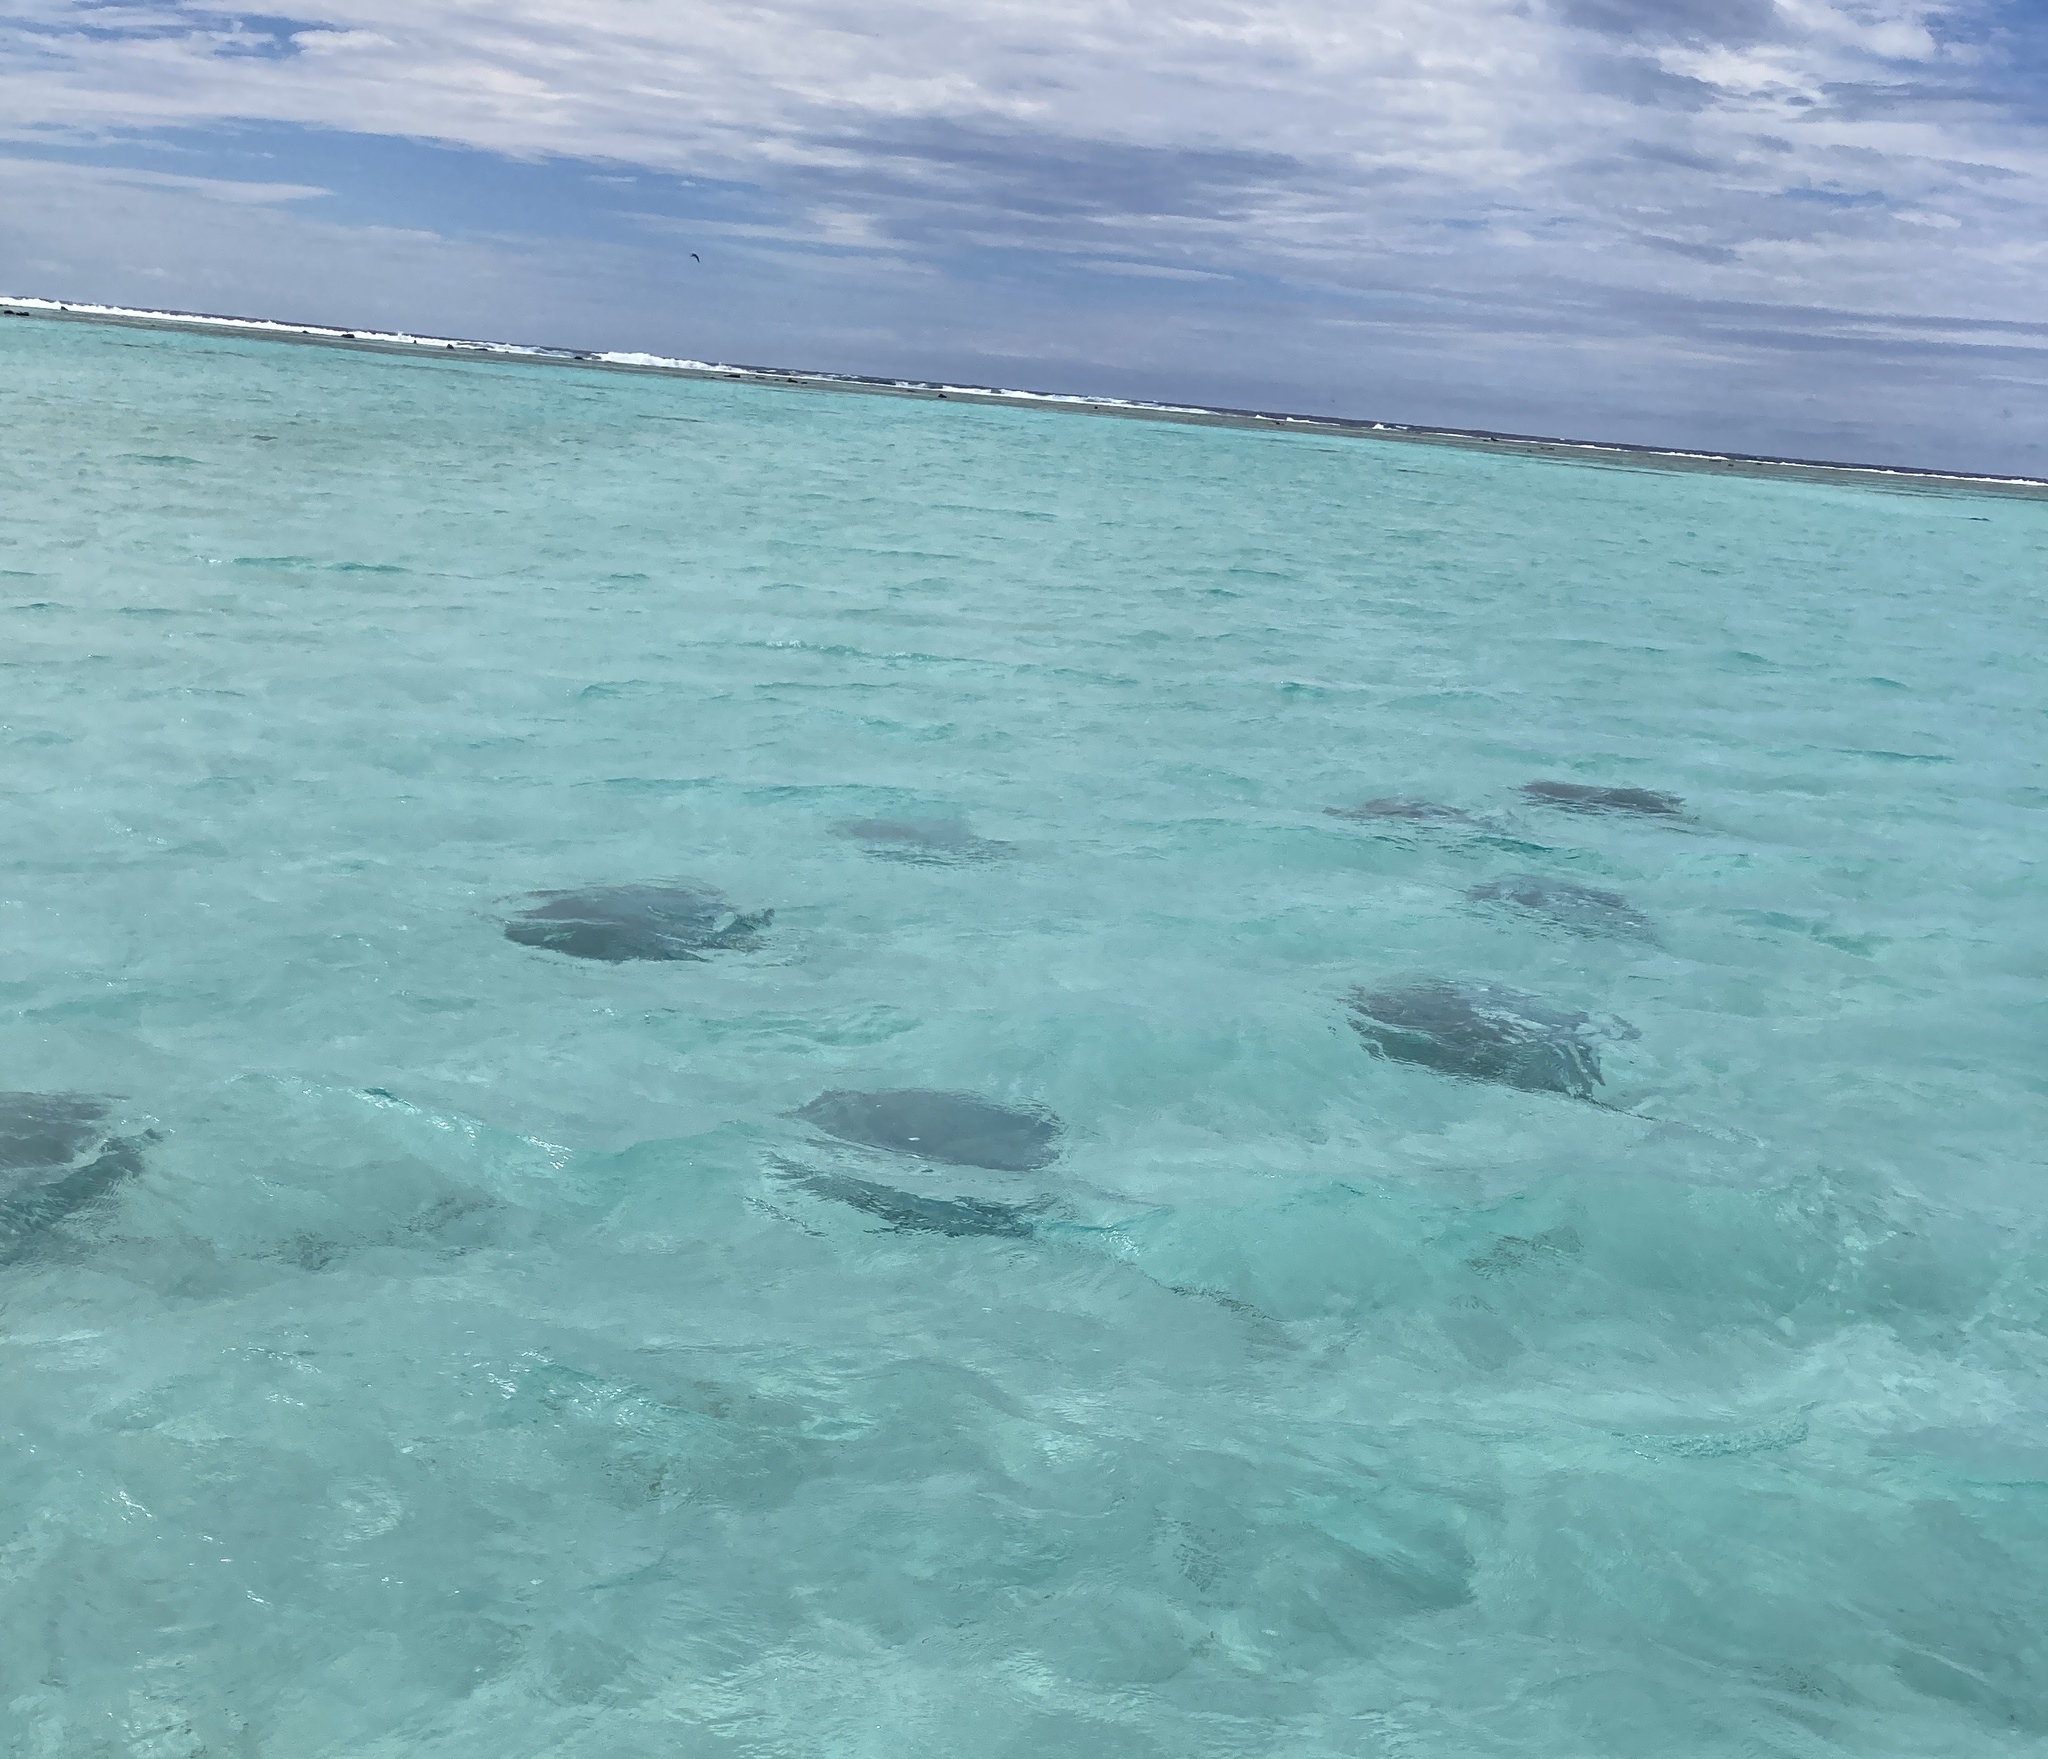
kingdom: Animalia
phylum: Chordata
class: Elasmobranchii
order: Myliobatiformes
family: Dasyatidae
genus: Pateobatis
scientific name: Pateobatis fai
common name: Pink whipray
